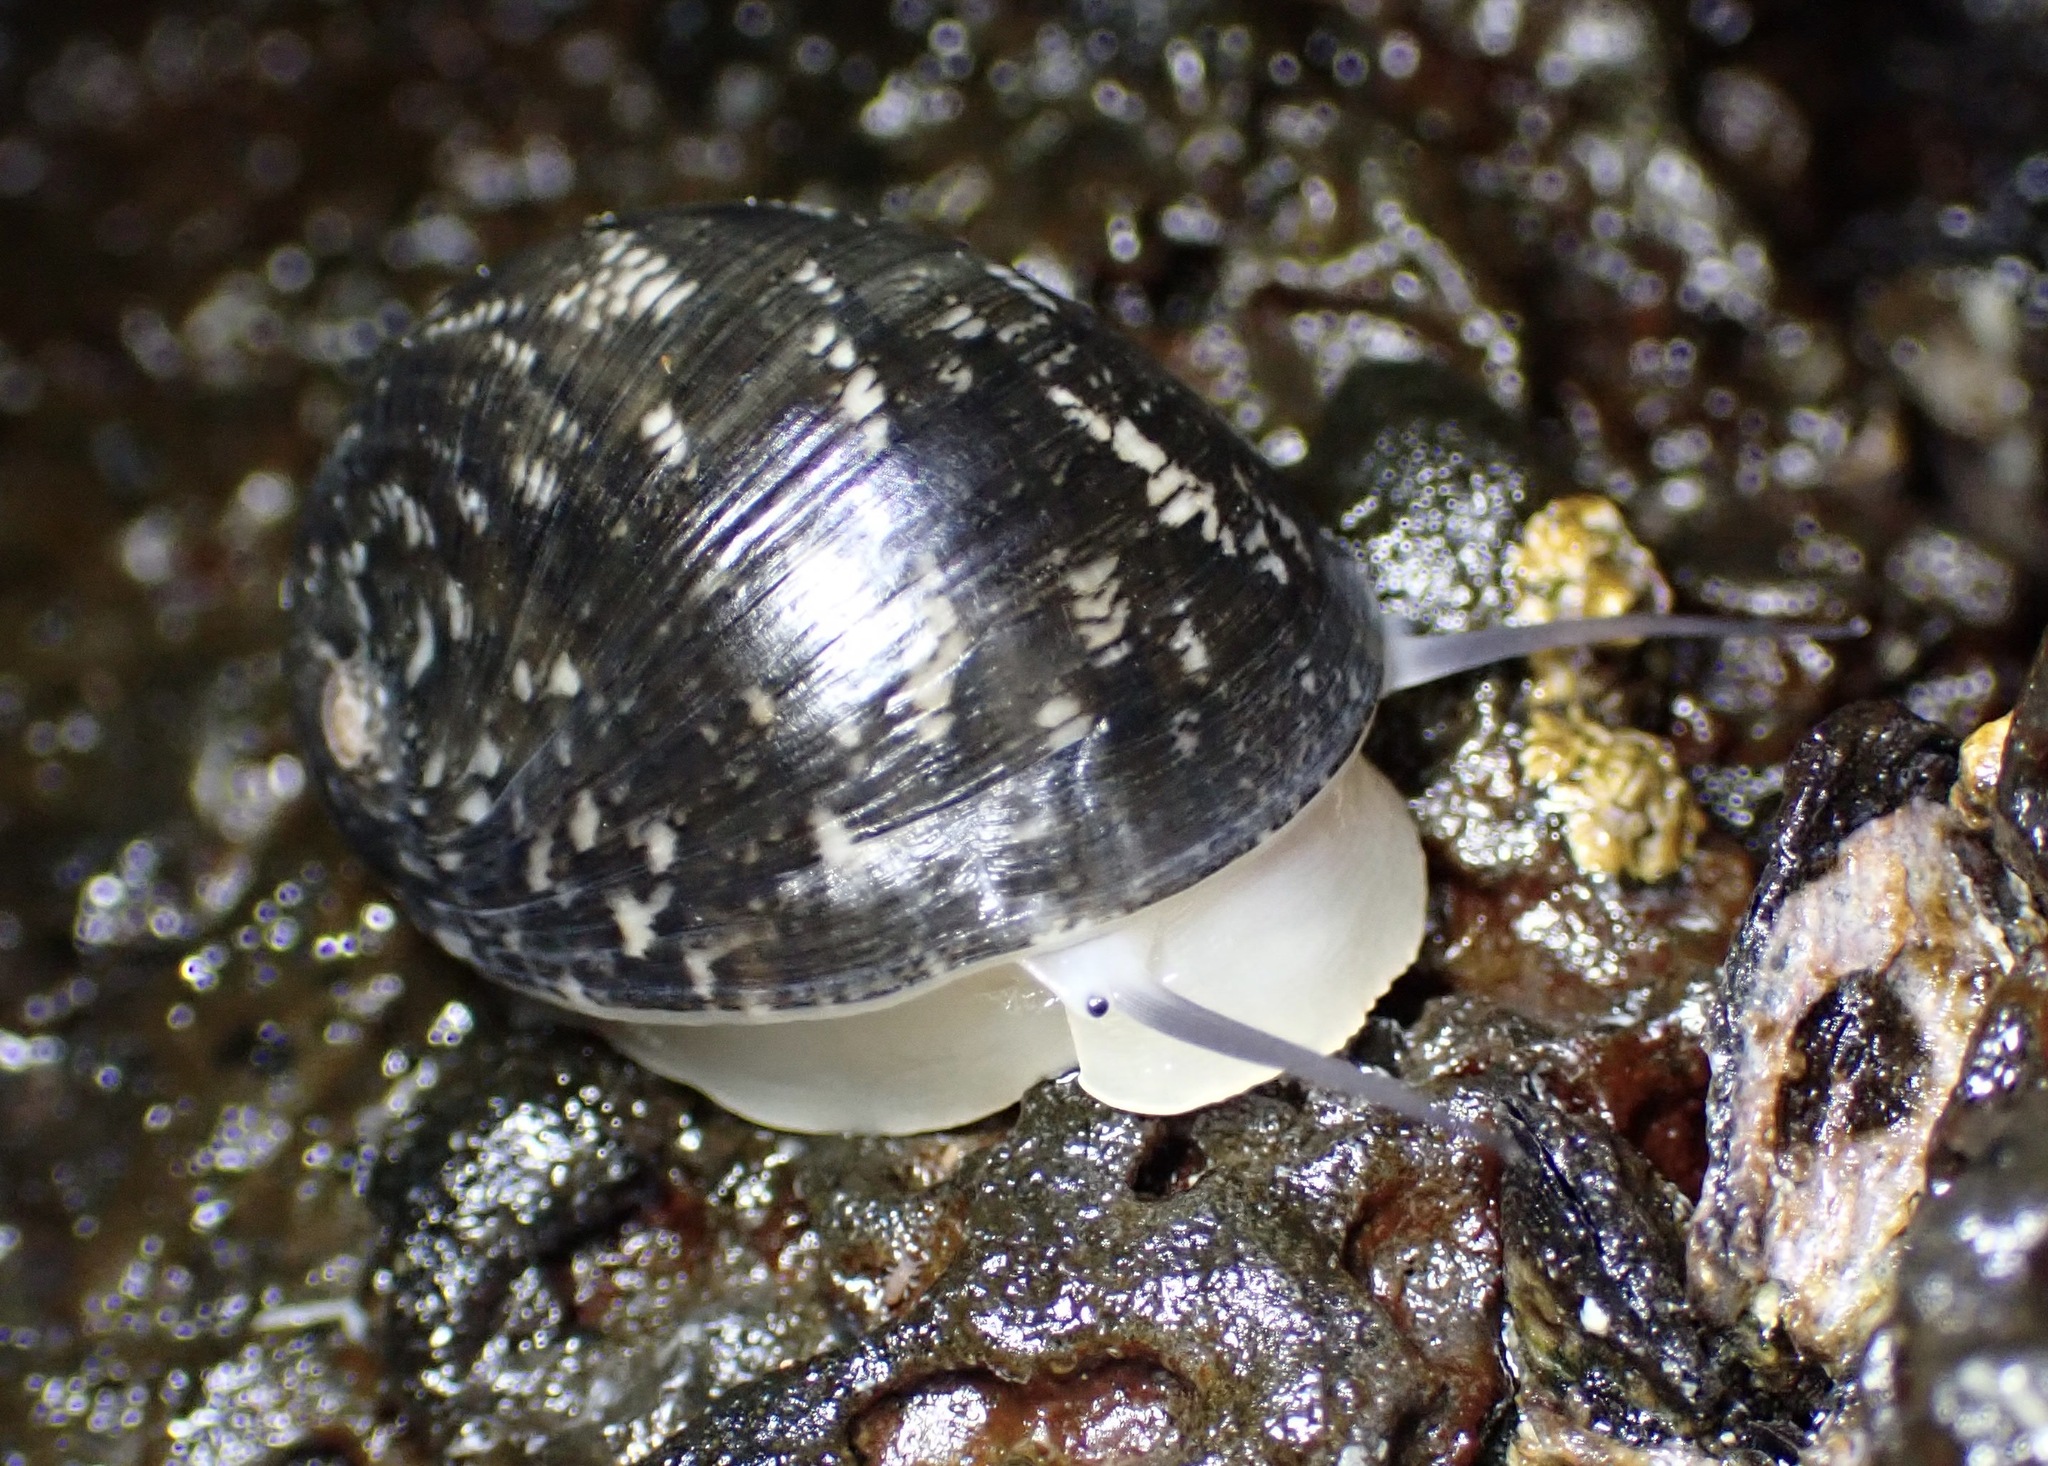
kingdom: Animalia
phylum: Mollusca
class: Gastropoda
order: Cycloneritida
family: Neritidae
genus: Nerita
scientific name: Nerita polita
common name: Polished nerite
